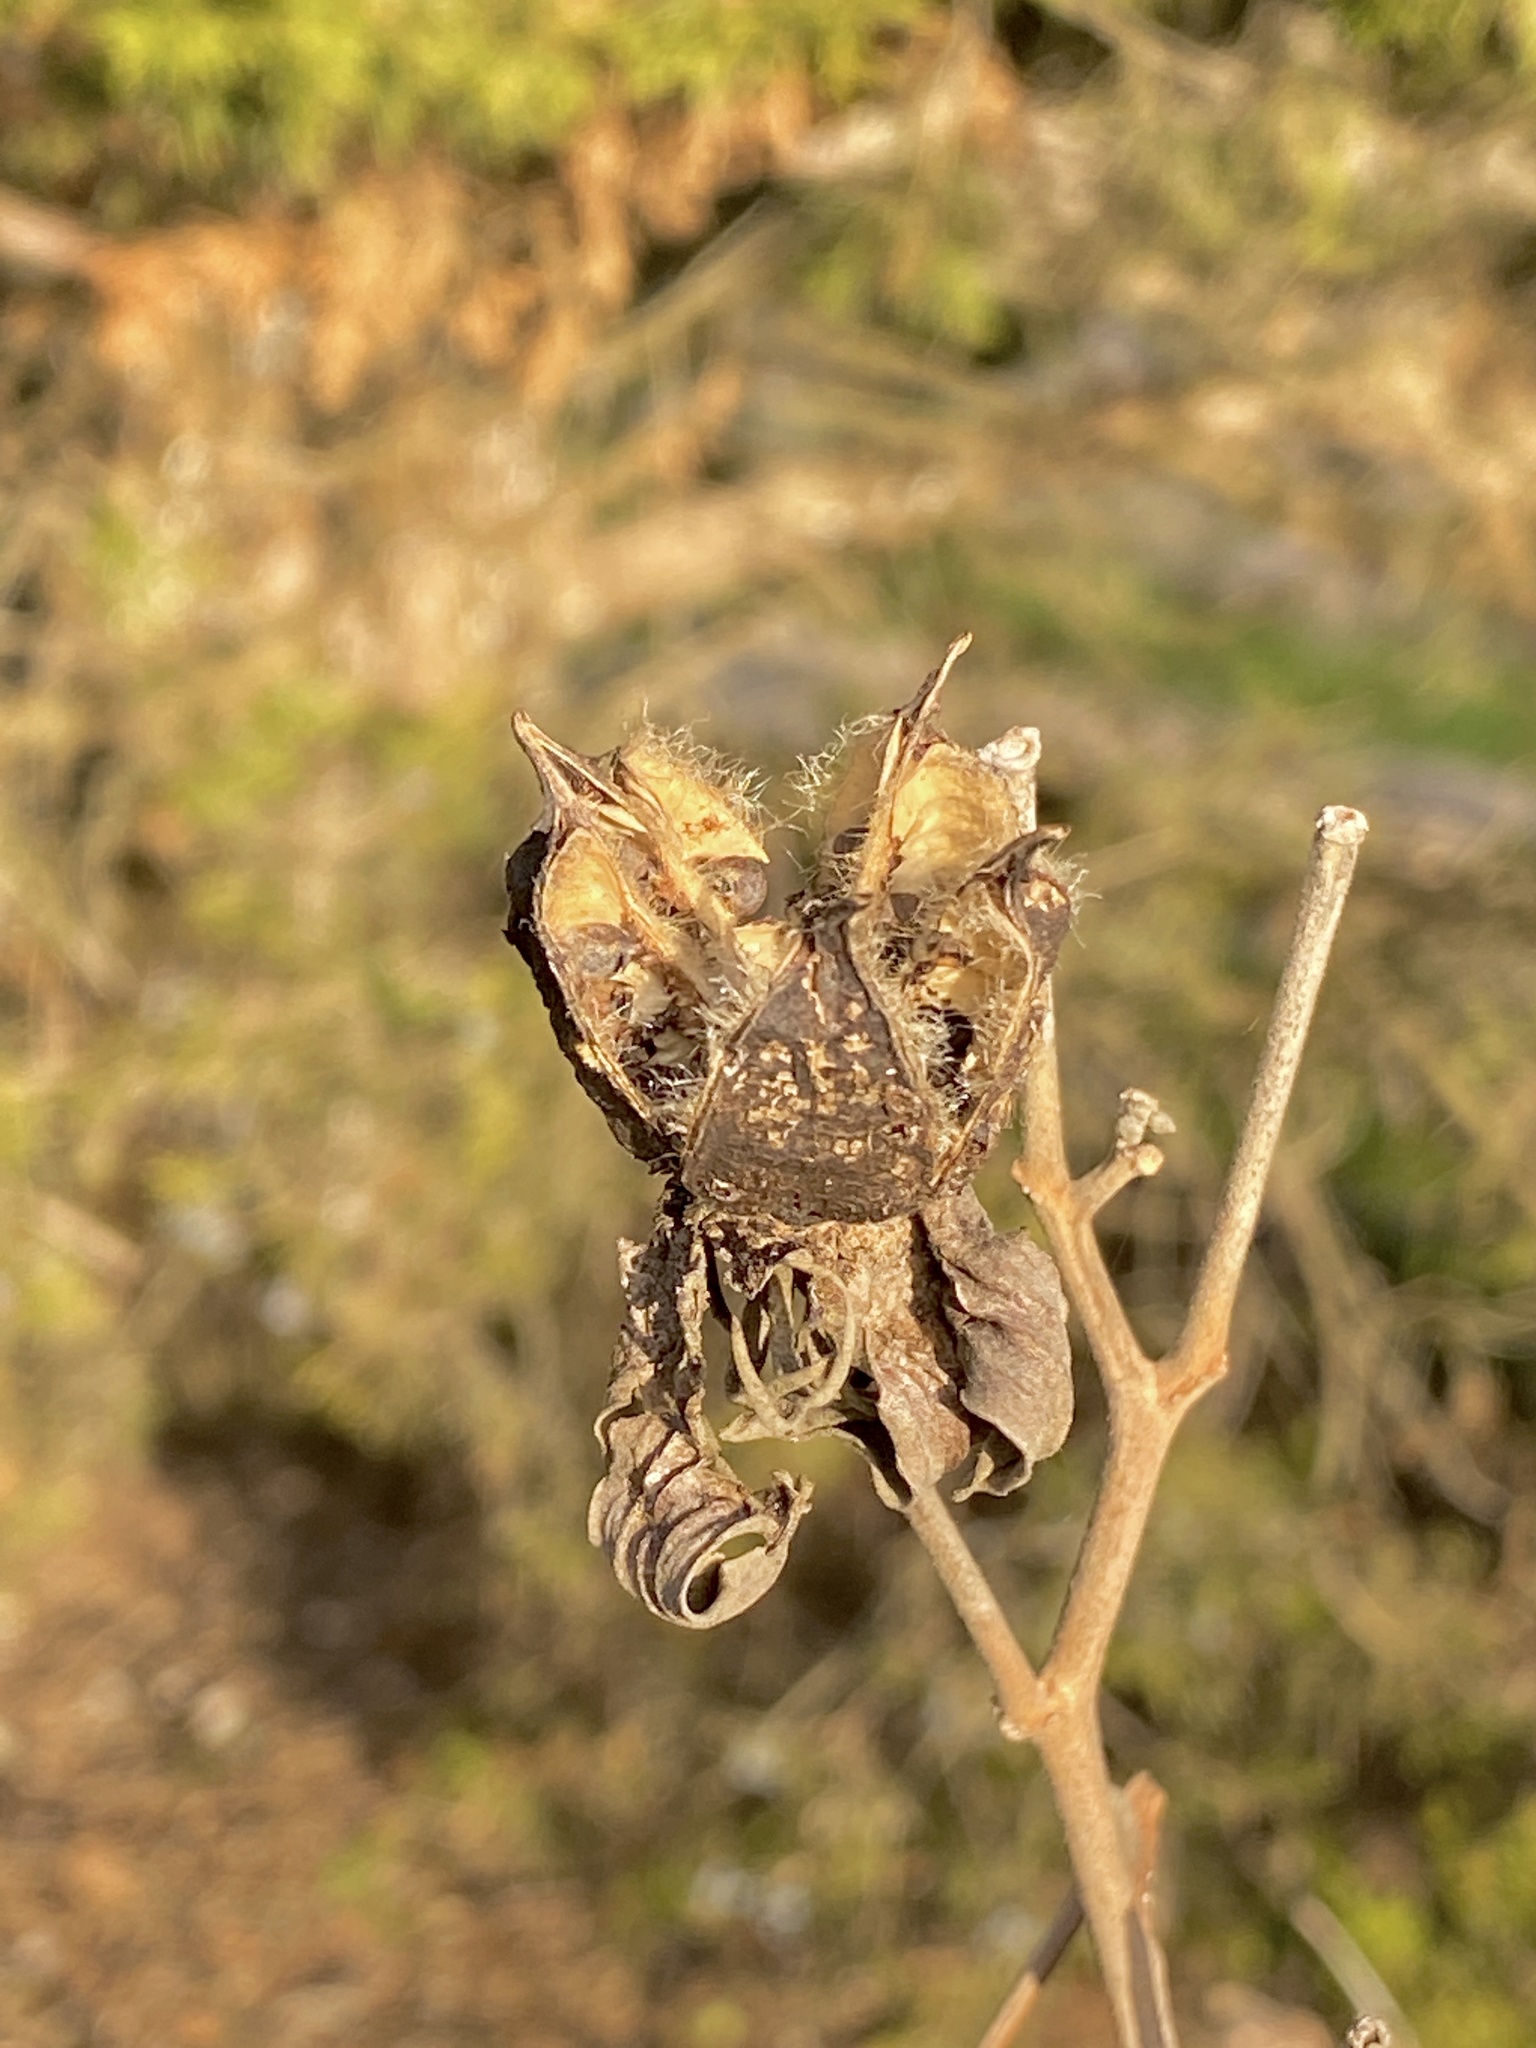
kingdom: Plantae
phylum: Tracheophyta
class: Magnoliopsida
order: Malvales
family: Malvaceae
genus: Hibiscus
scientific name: Hibiscus moscheutos
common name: Common rose-mallow
